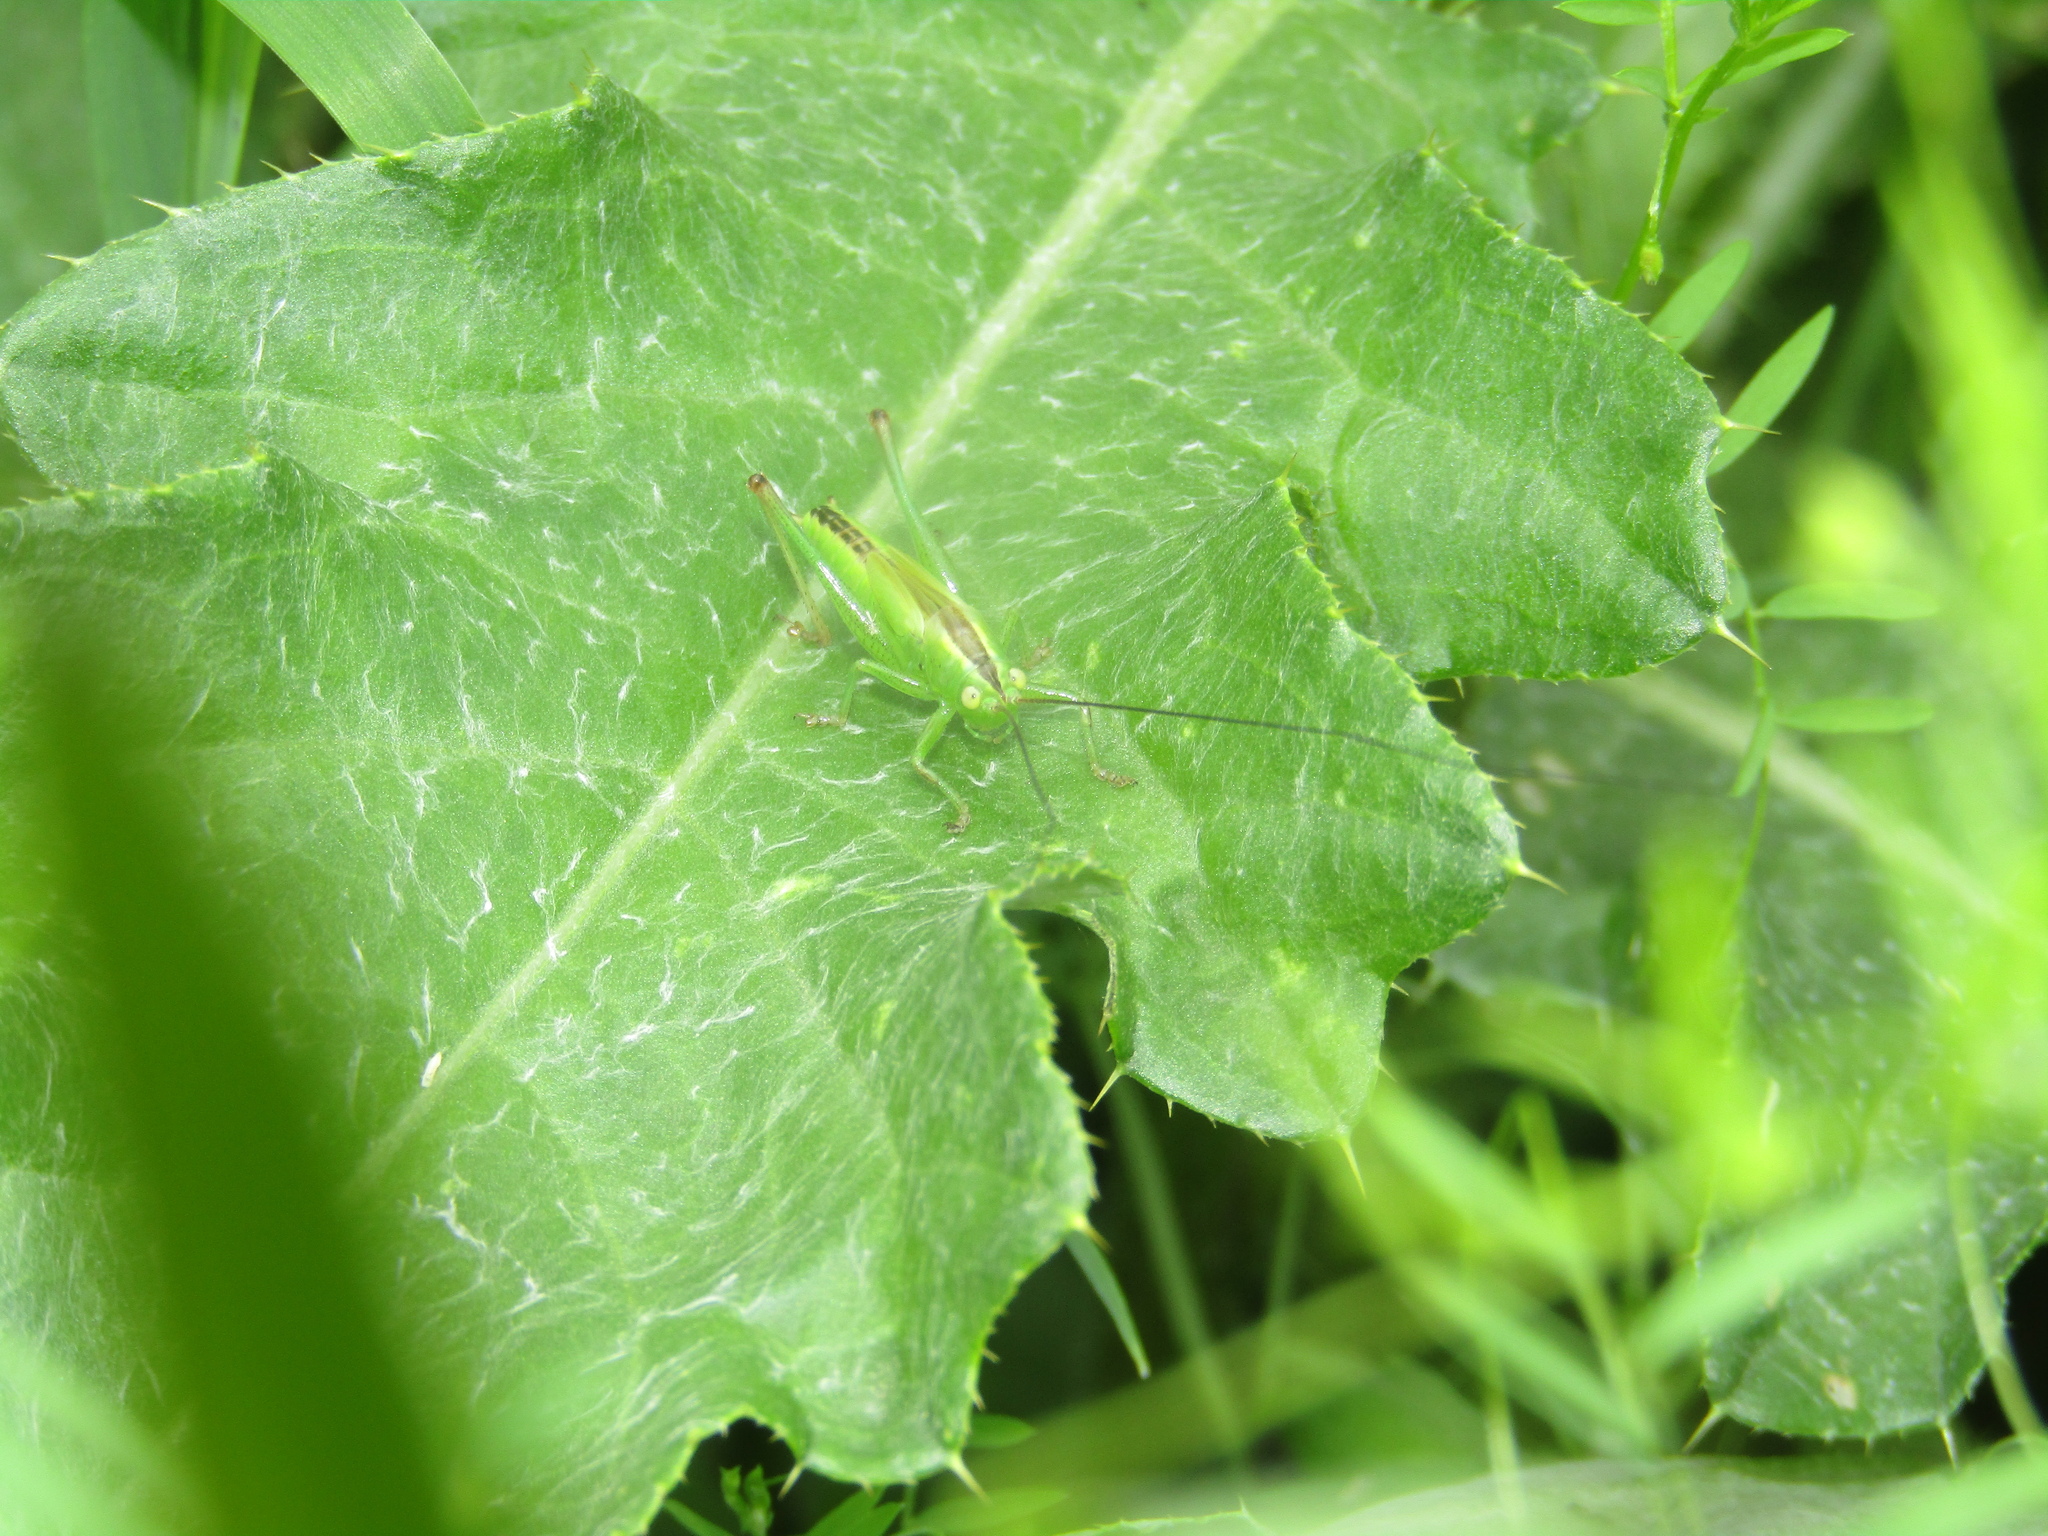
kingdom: Animalia
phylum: Arthropoda
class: Insecta
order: Orthoptera
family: Tettigoniidae
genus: Conocephalus
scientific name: Conocephalus fuscus
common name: Long-winged conehead
